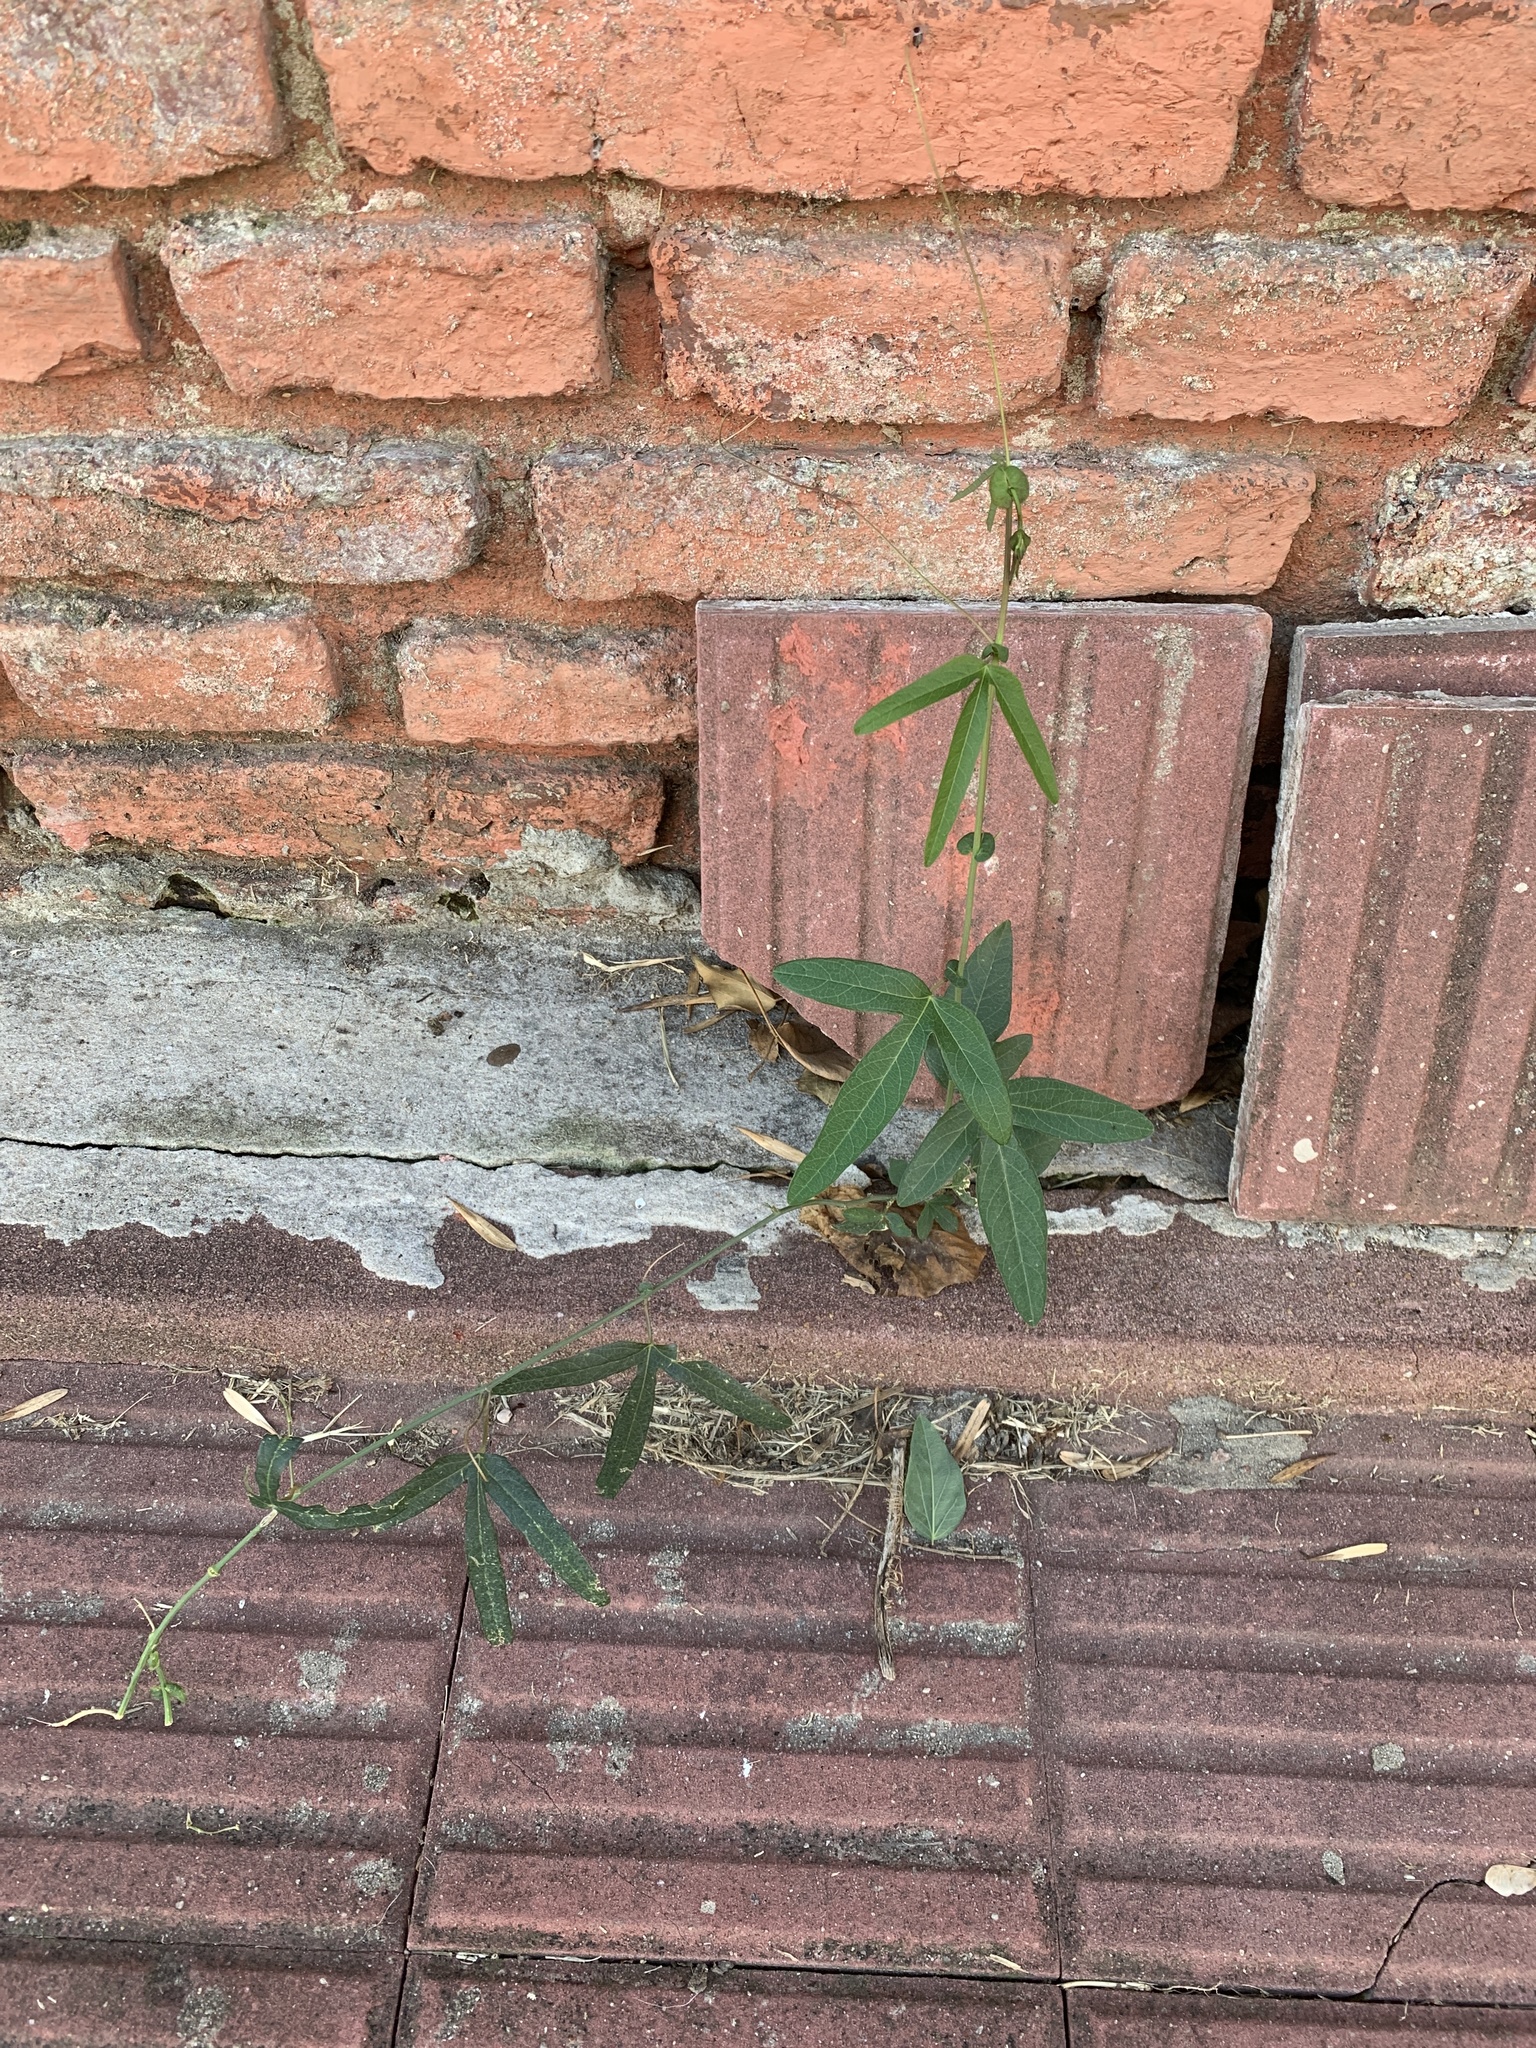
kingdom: Plantae
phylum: Tracheophyta
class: Magnoliopsida
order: Malpighiales
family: Passifloraceae
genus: Passiflora
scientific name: Passiflora caerulea
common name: Blue passionflower
